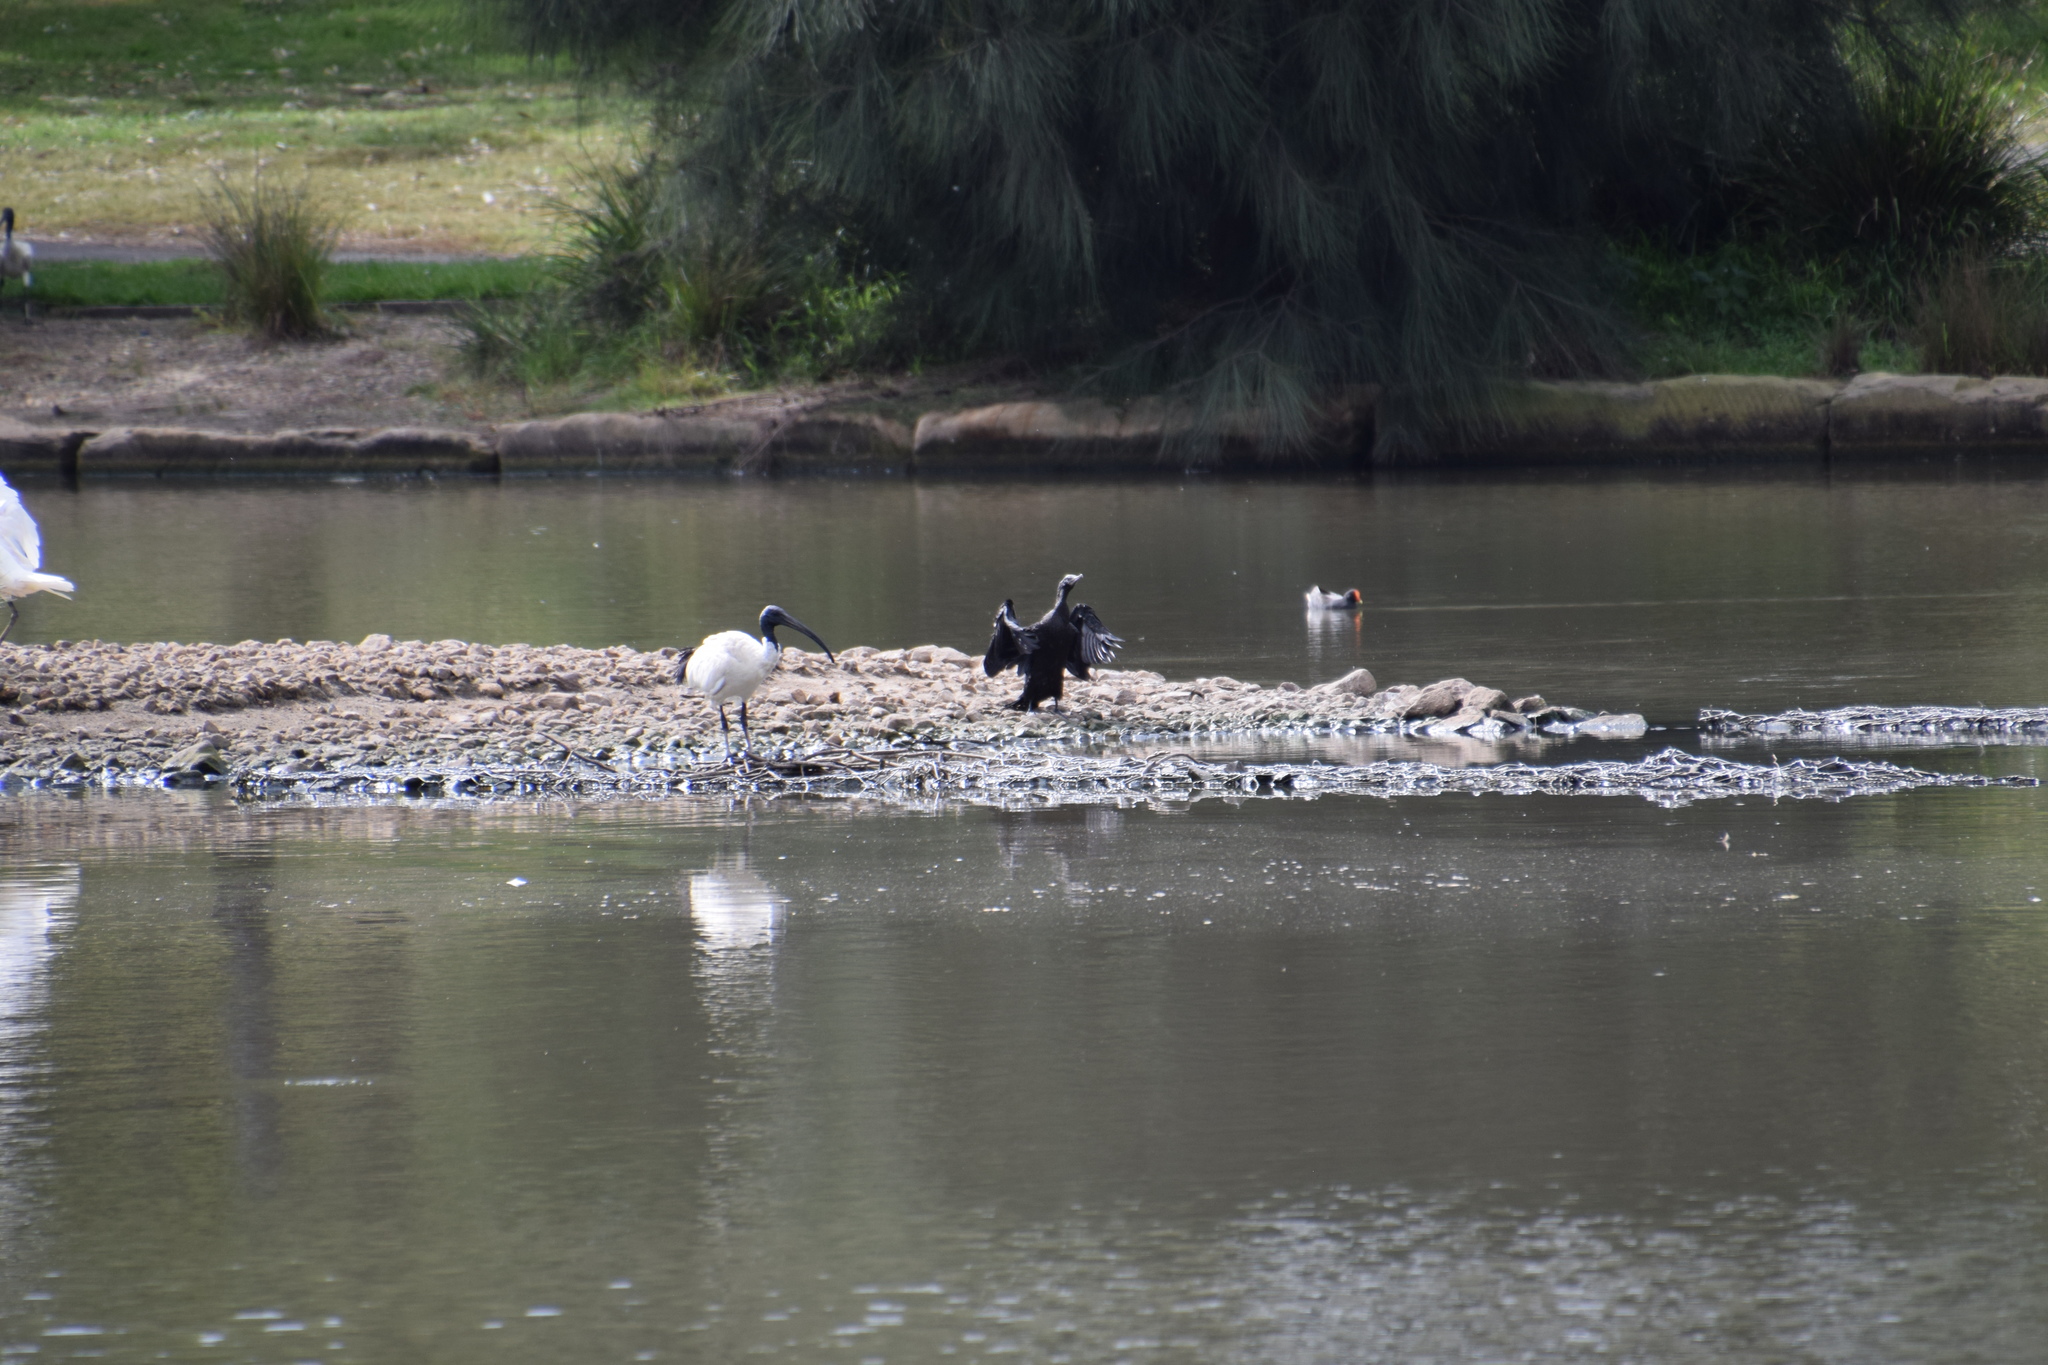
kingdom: Animalia
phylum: Chordata
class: Aves
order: Suliformes
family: Phalacrocoracidae
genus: Phalacrocorax
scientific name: Phalacrocorax sulcirostris
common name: Little black cormorant
